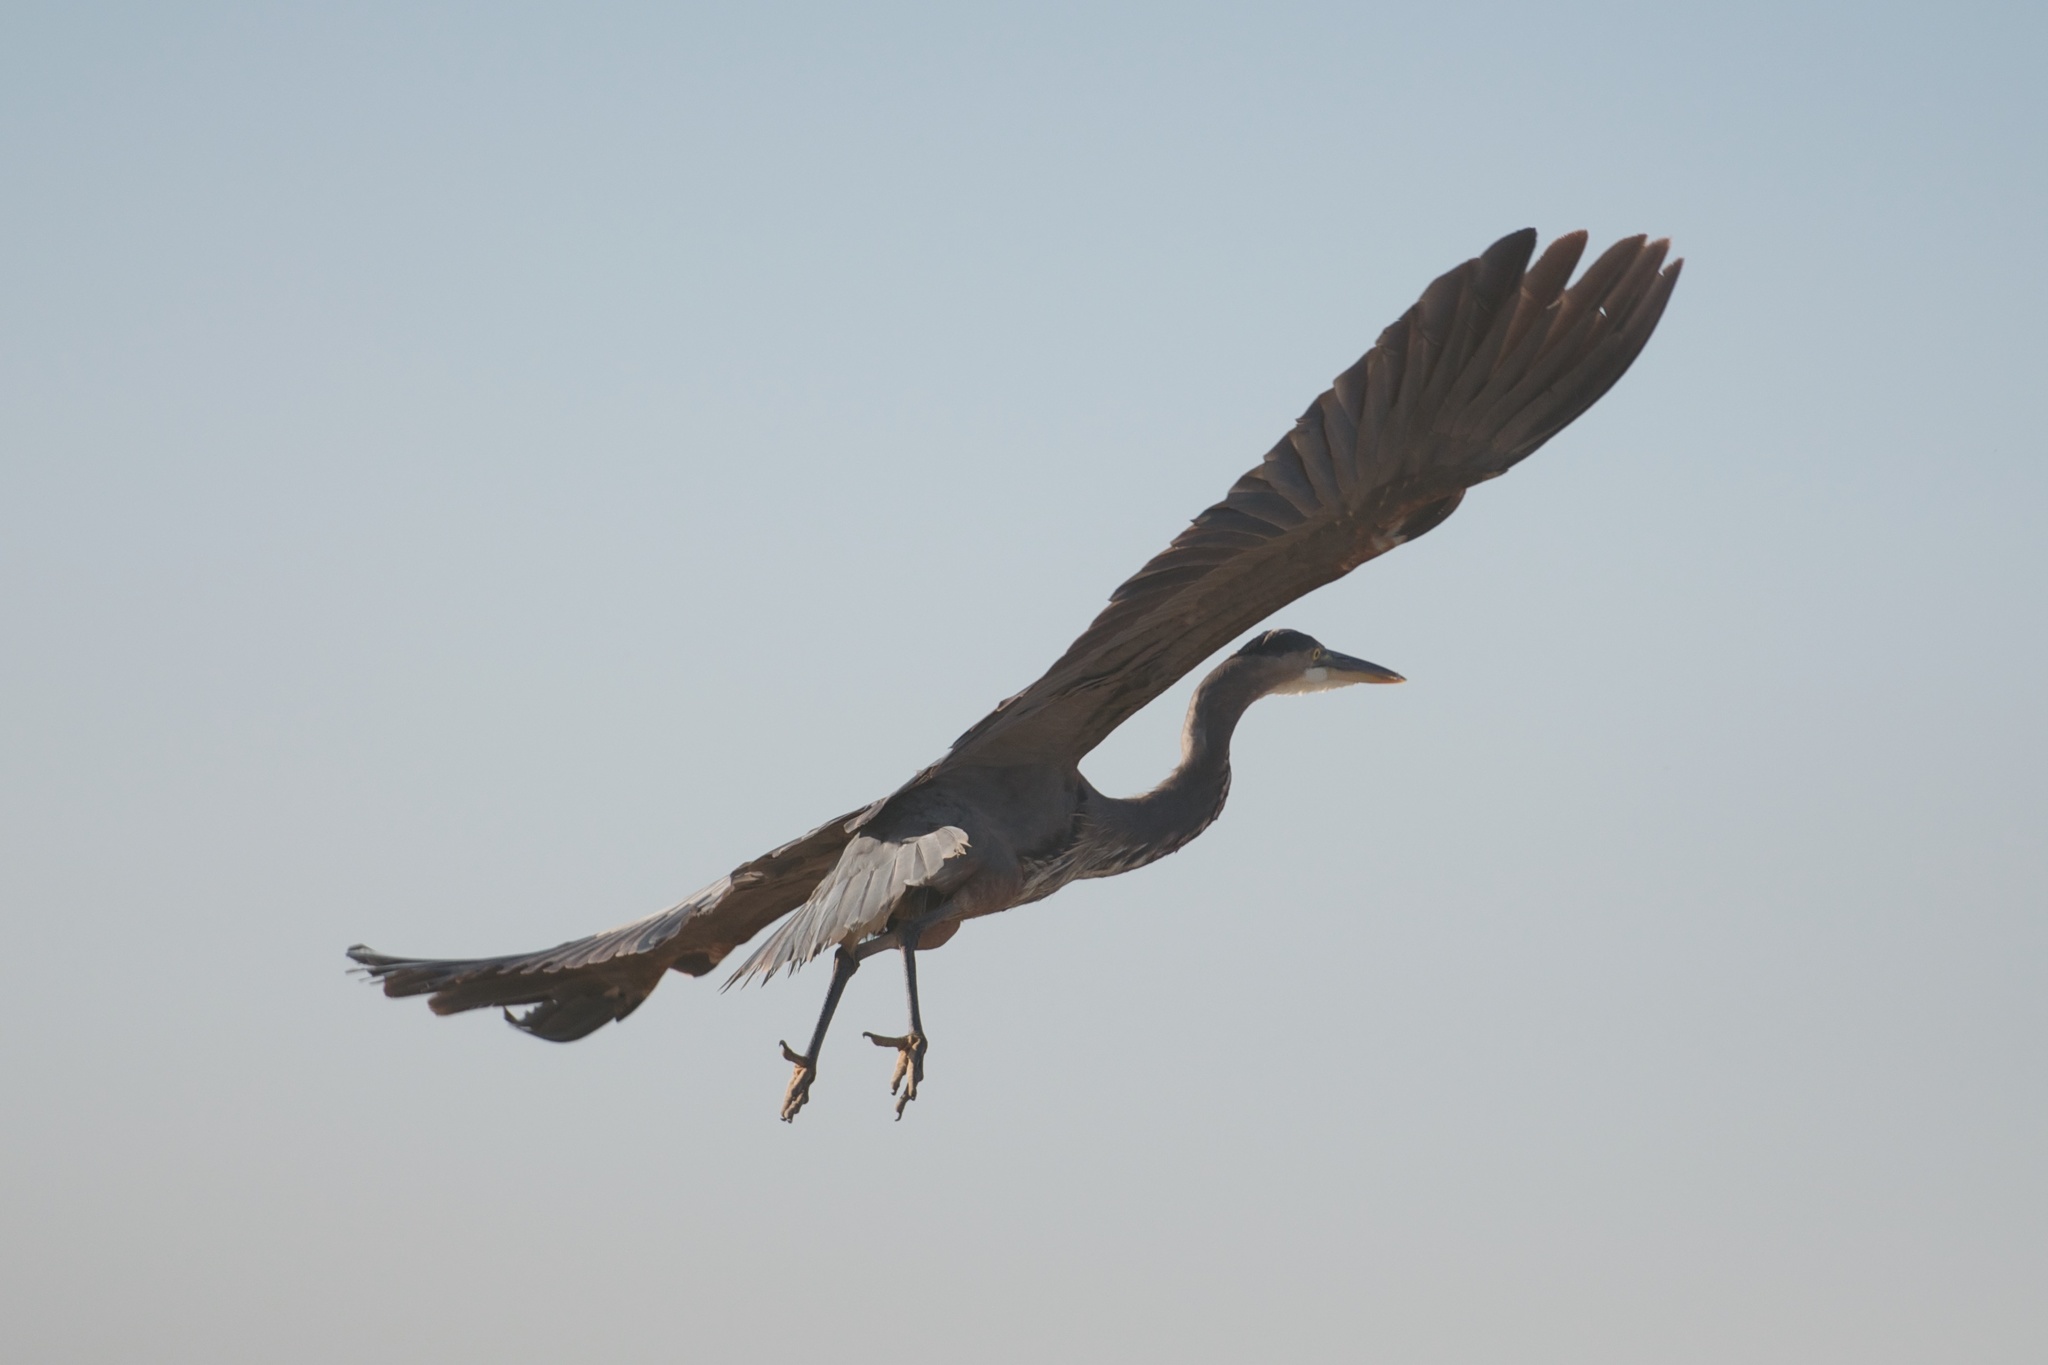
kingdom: Animalia
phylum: Chordata
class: Aves
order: Pelecaniformes
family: Ardeidae
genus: Ardea
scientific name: Ardea herodias
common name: Great blue heron
